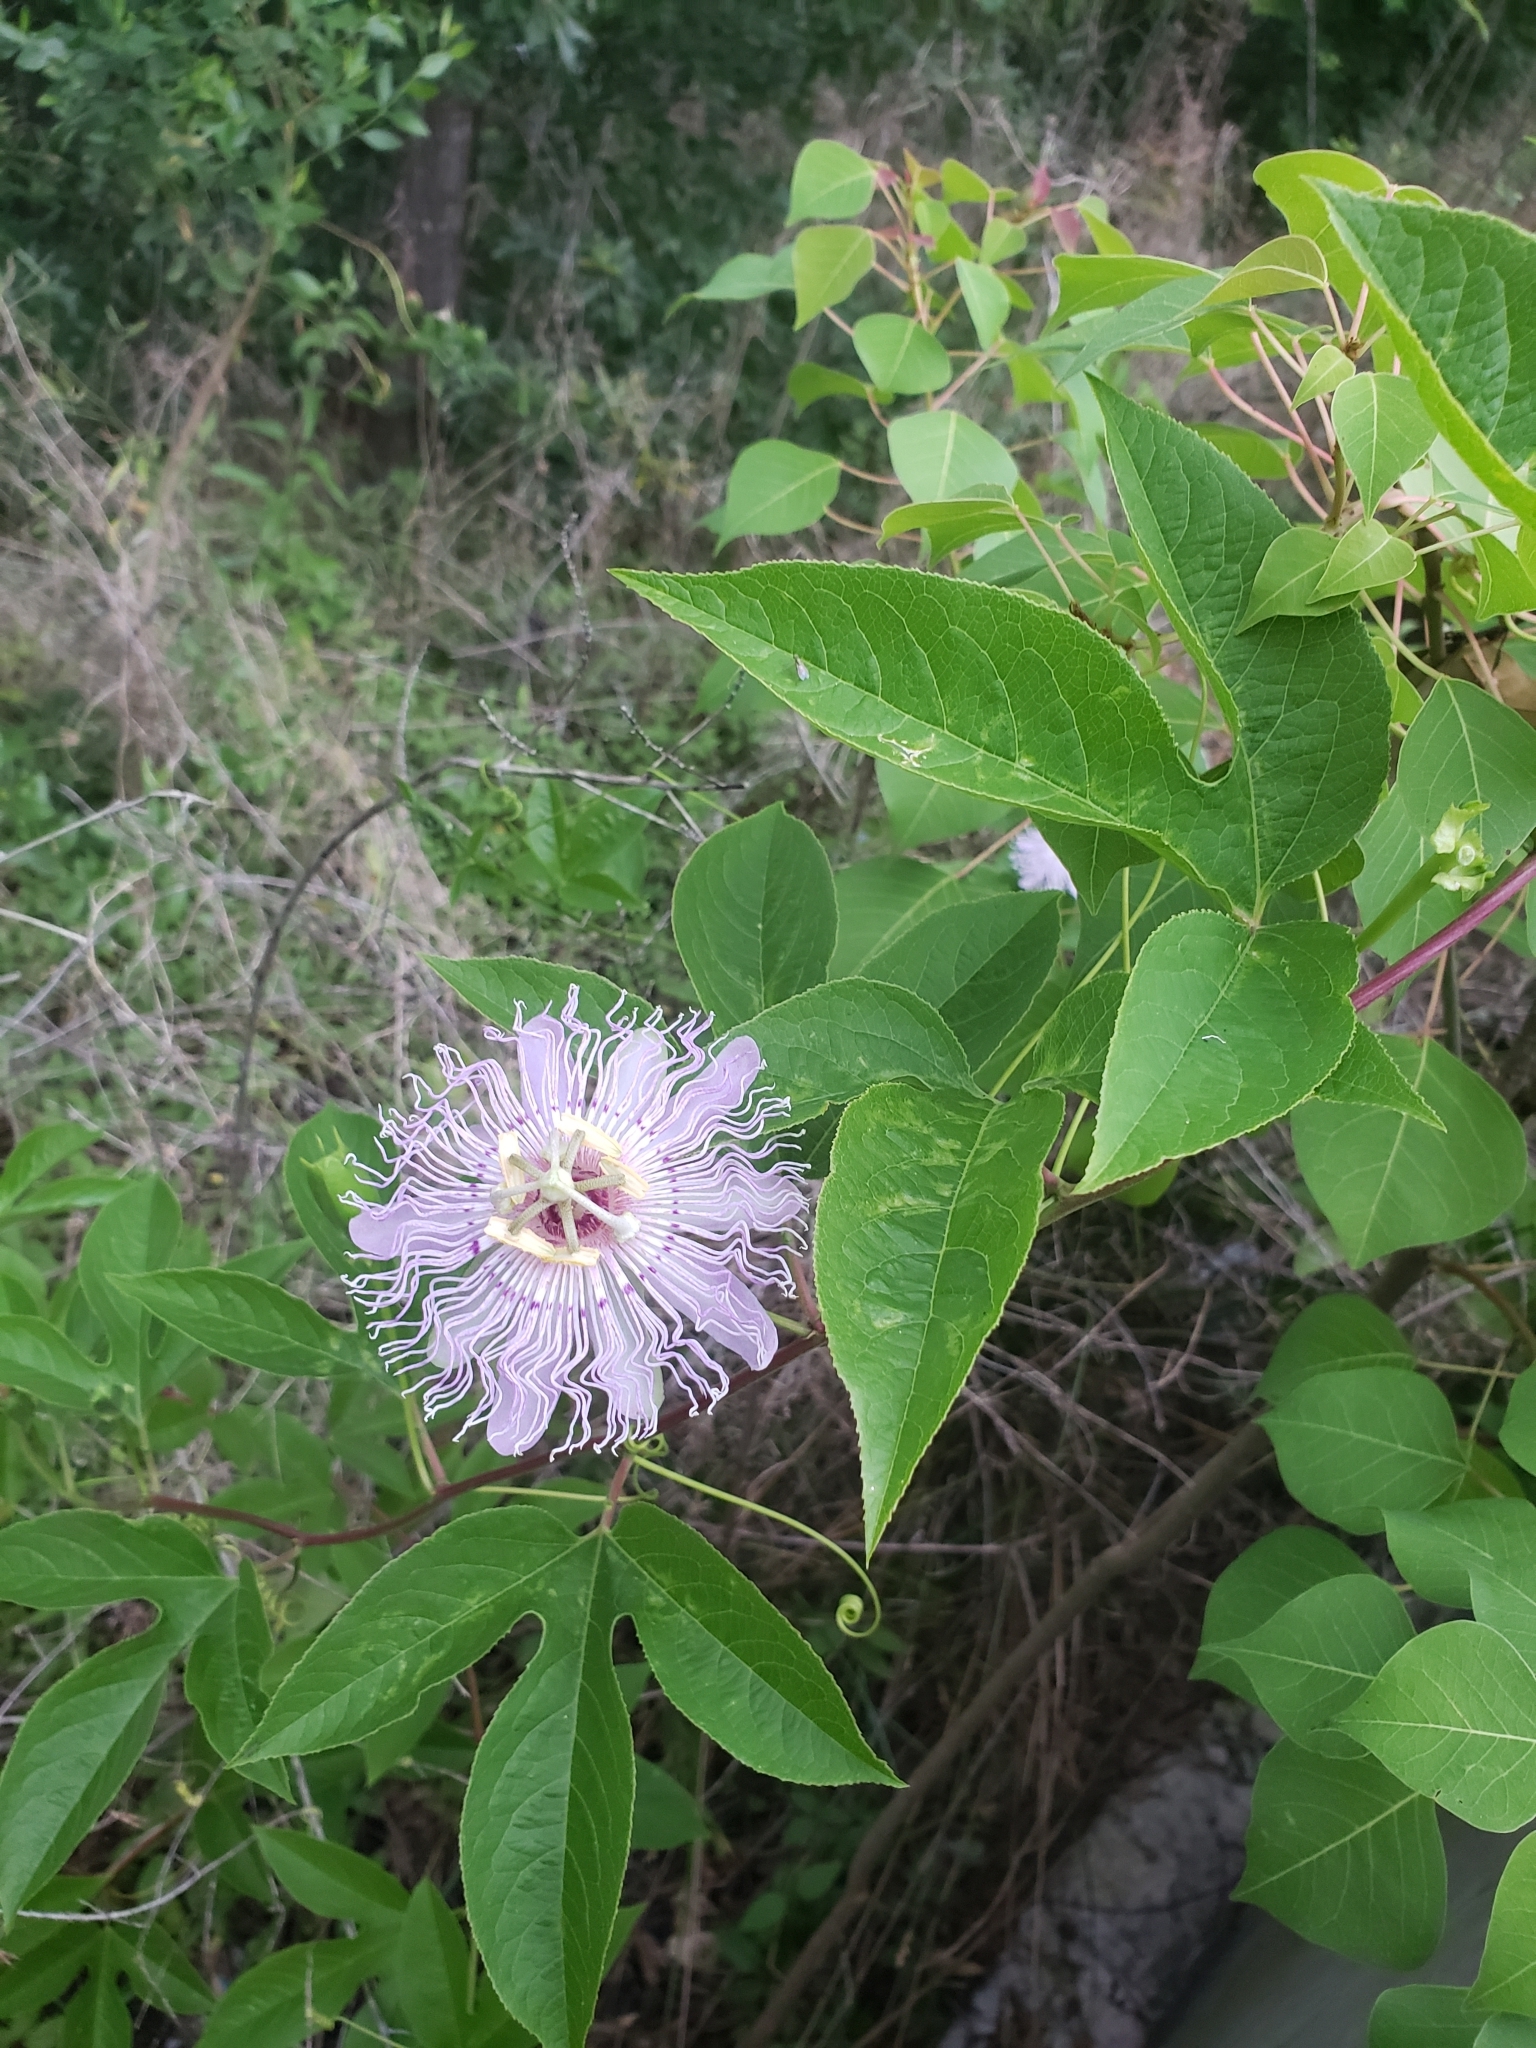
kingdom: Plantae
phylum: Tracheophyta
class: Magnoliopsida
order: Malpighiales
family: Passifloraceae
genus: Passiflora
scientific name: Passiflora incarnata
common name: Apricot-vine
